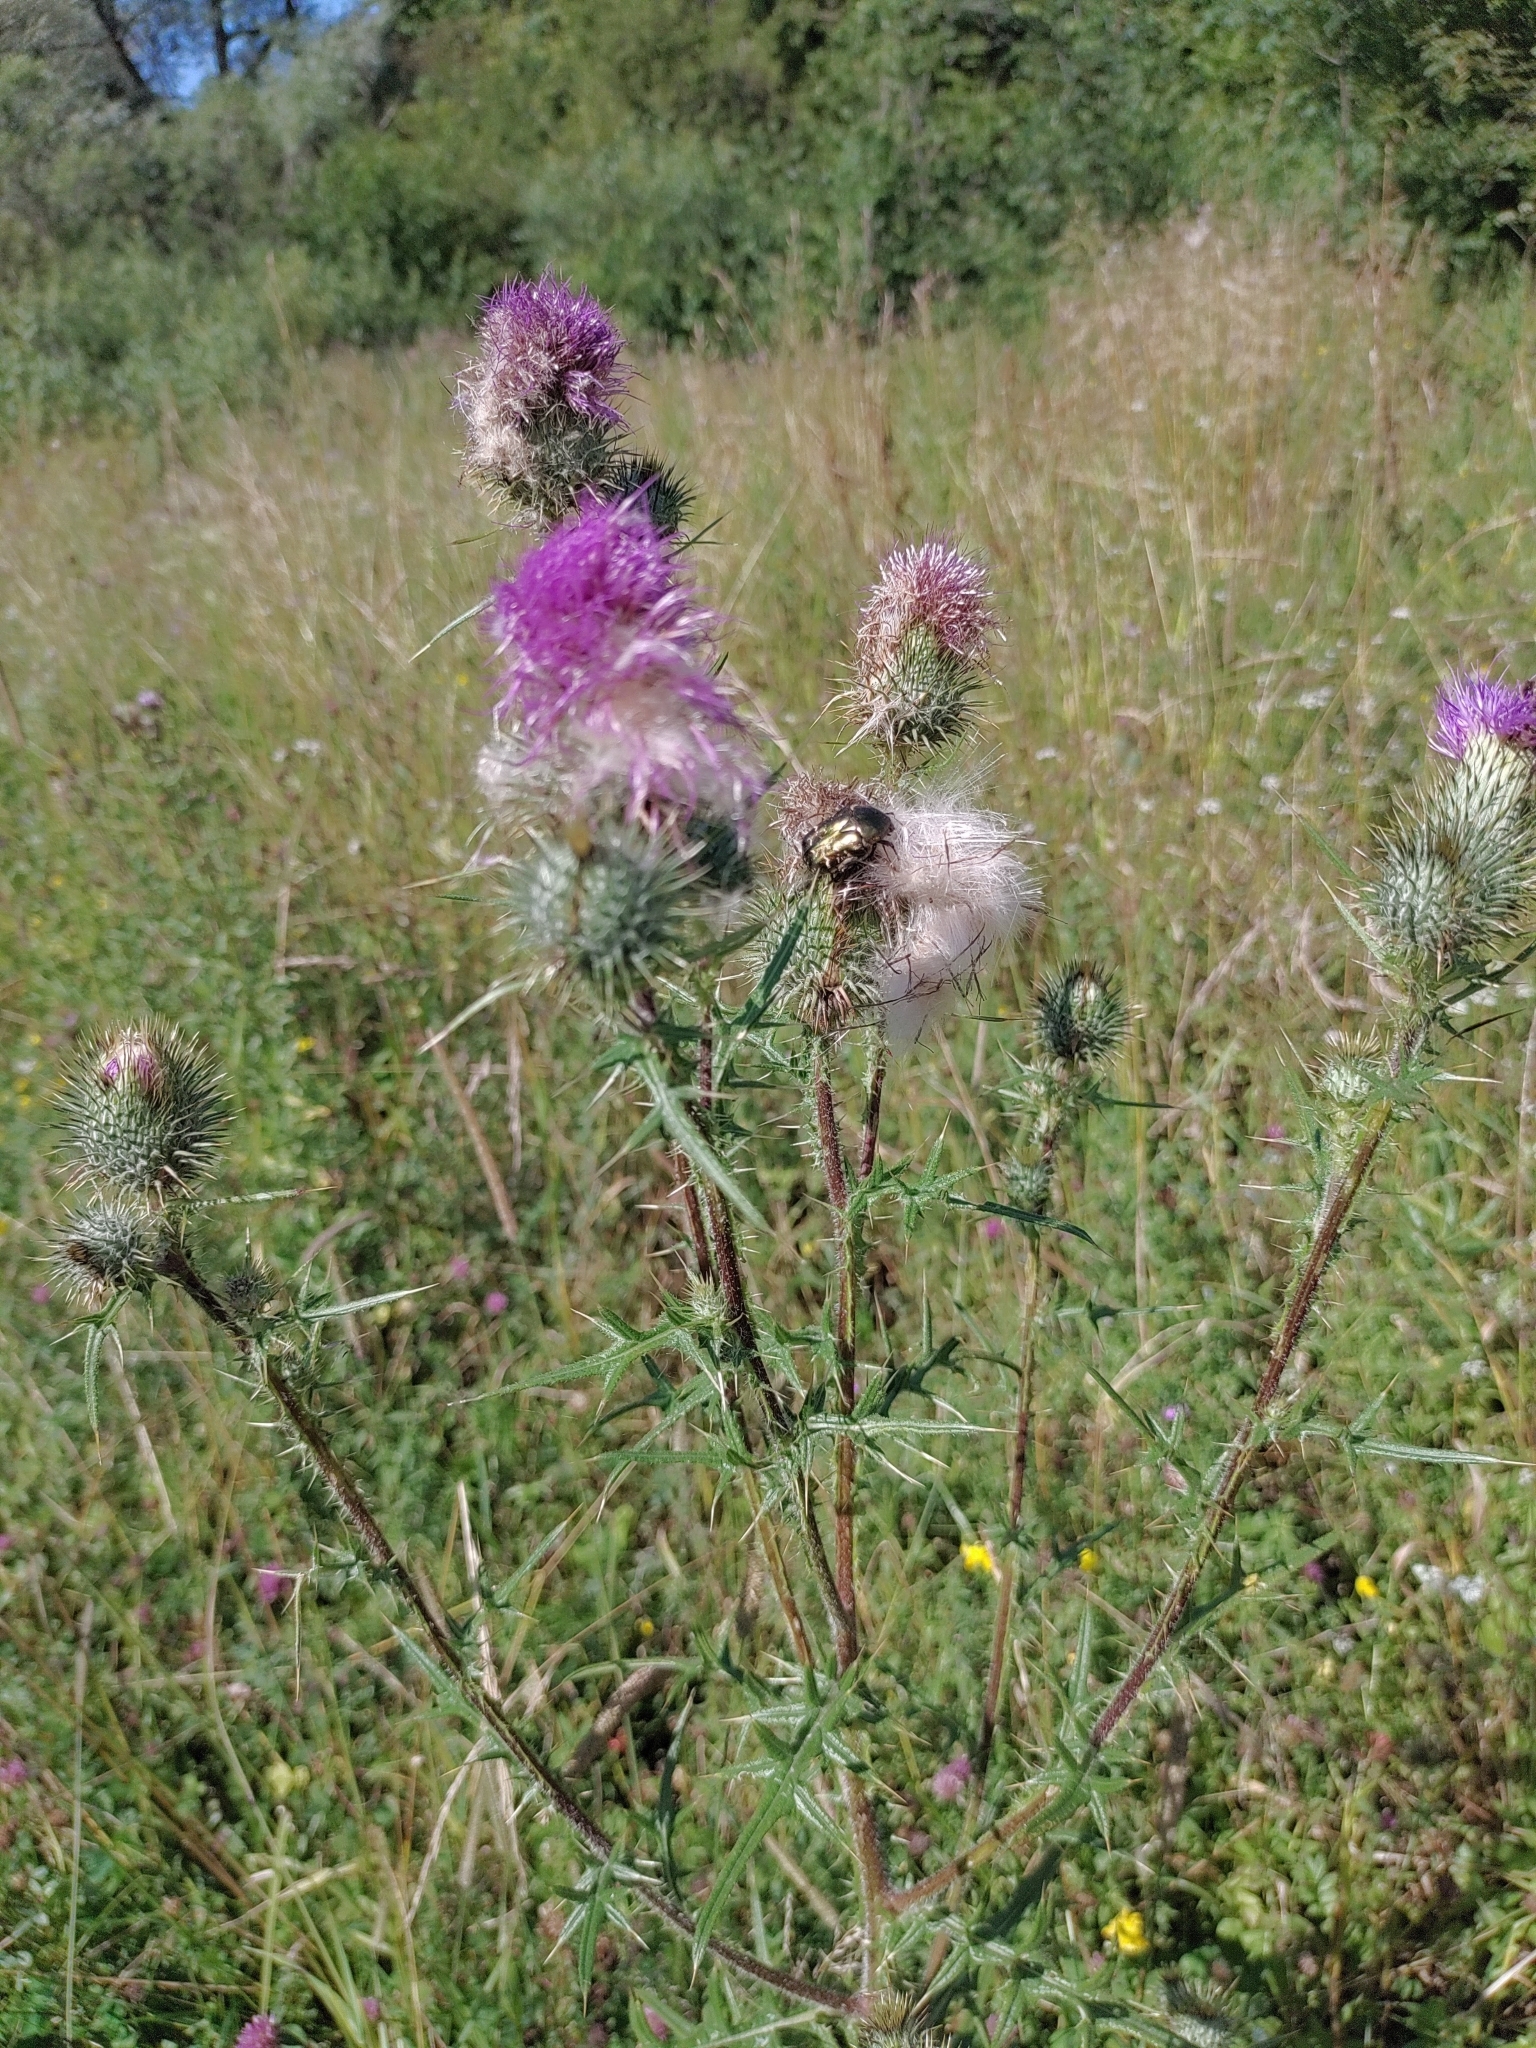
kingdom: Plantae
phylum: Tracheophyta
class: Magnoliopsida
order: Asterales
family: Asteraceae
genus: Cirsium
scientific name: Cirsium vulgare
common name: Bull thistle
